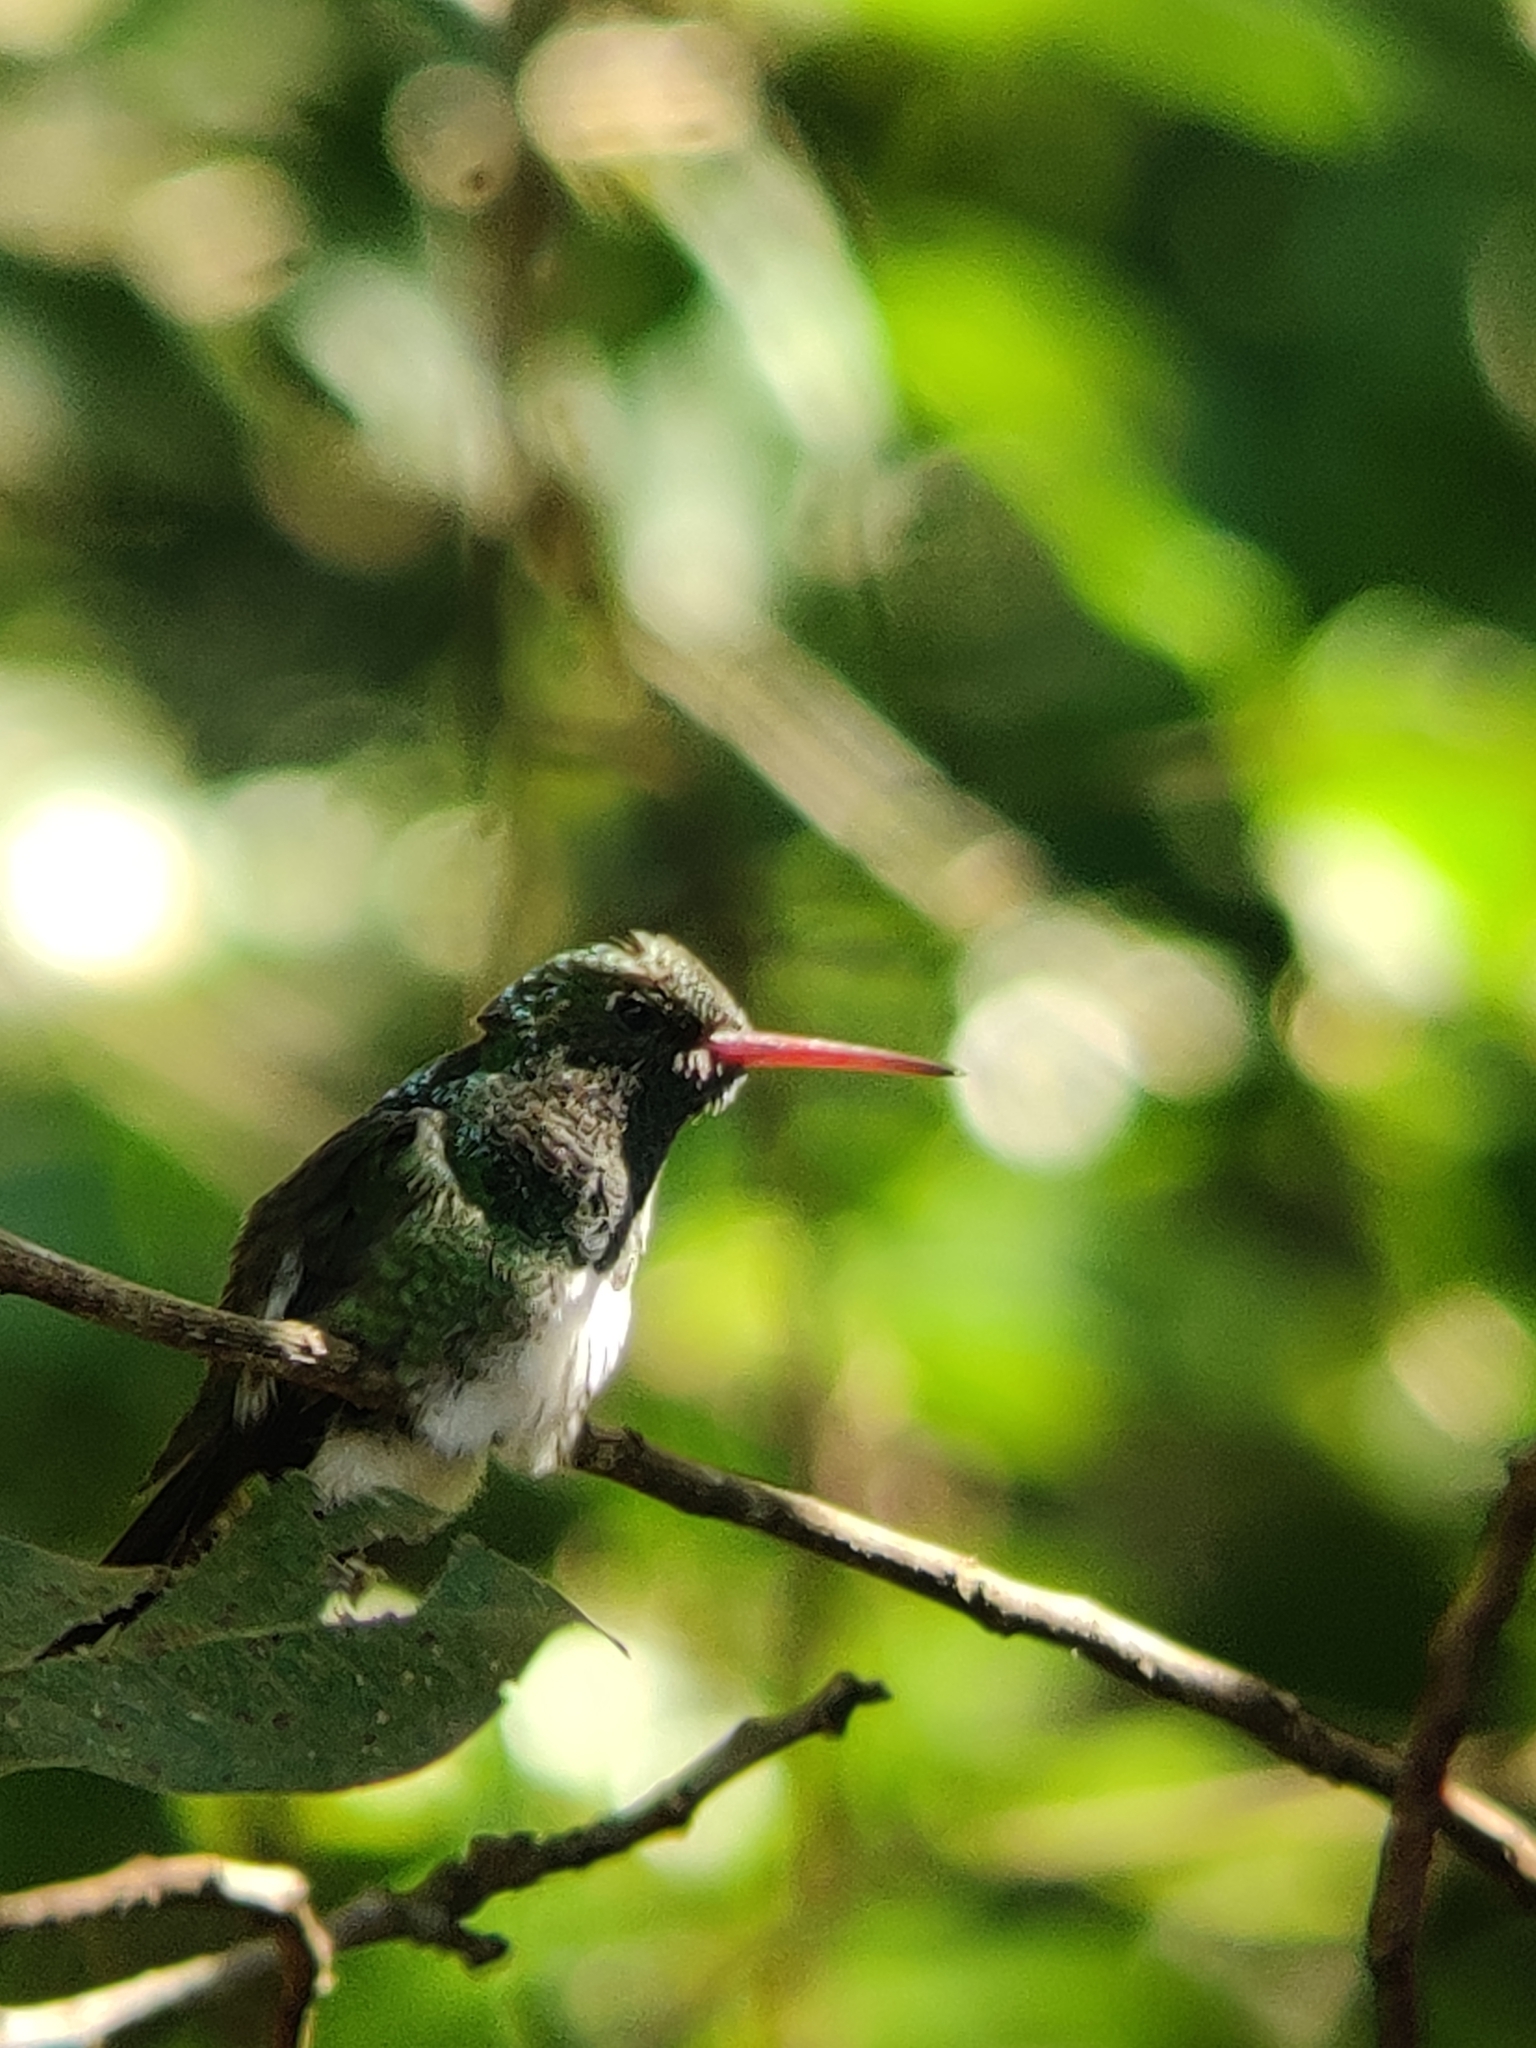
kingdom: Animalia
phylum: Chordata
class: Aves
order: Apodiformes
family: Trochilidae
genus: Chionomesa
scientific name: Chionomesa fimbriata
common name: Glittering-throated emerald
